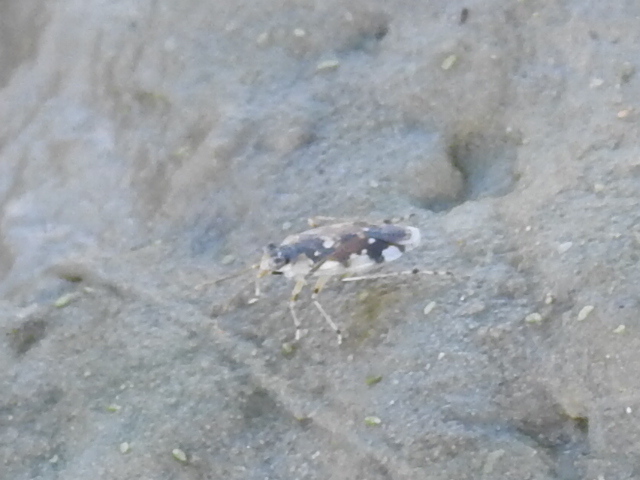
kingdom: Animalia
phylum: Arthropoda
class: Insecta
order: Hemiptera
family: Saldidae
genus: Pentacora
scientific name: Pentacora signoreti
